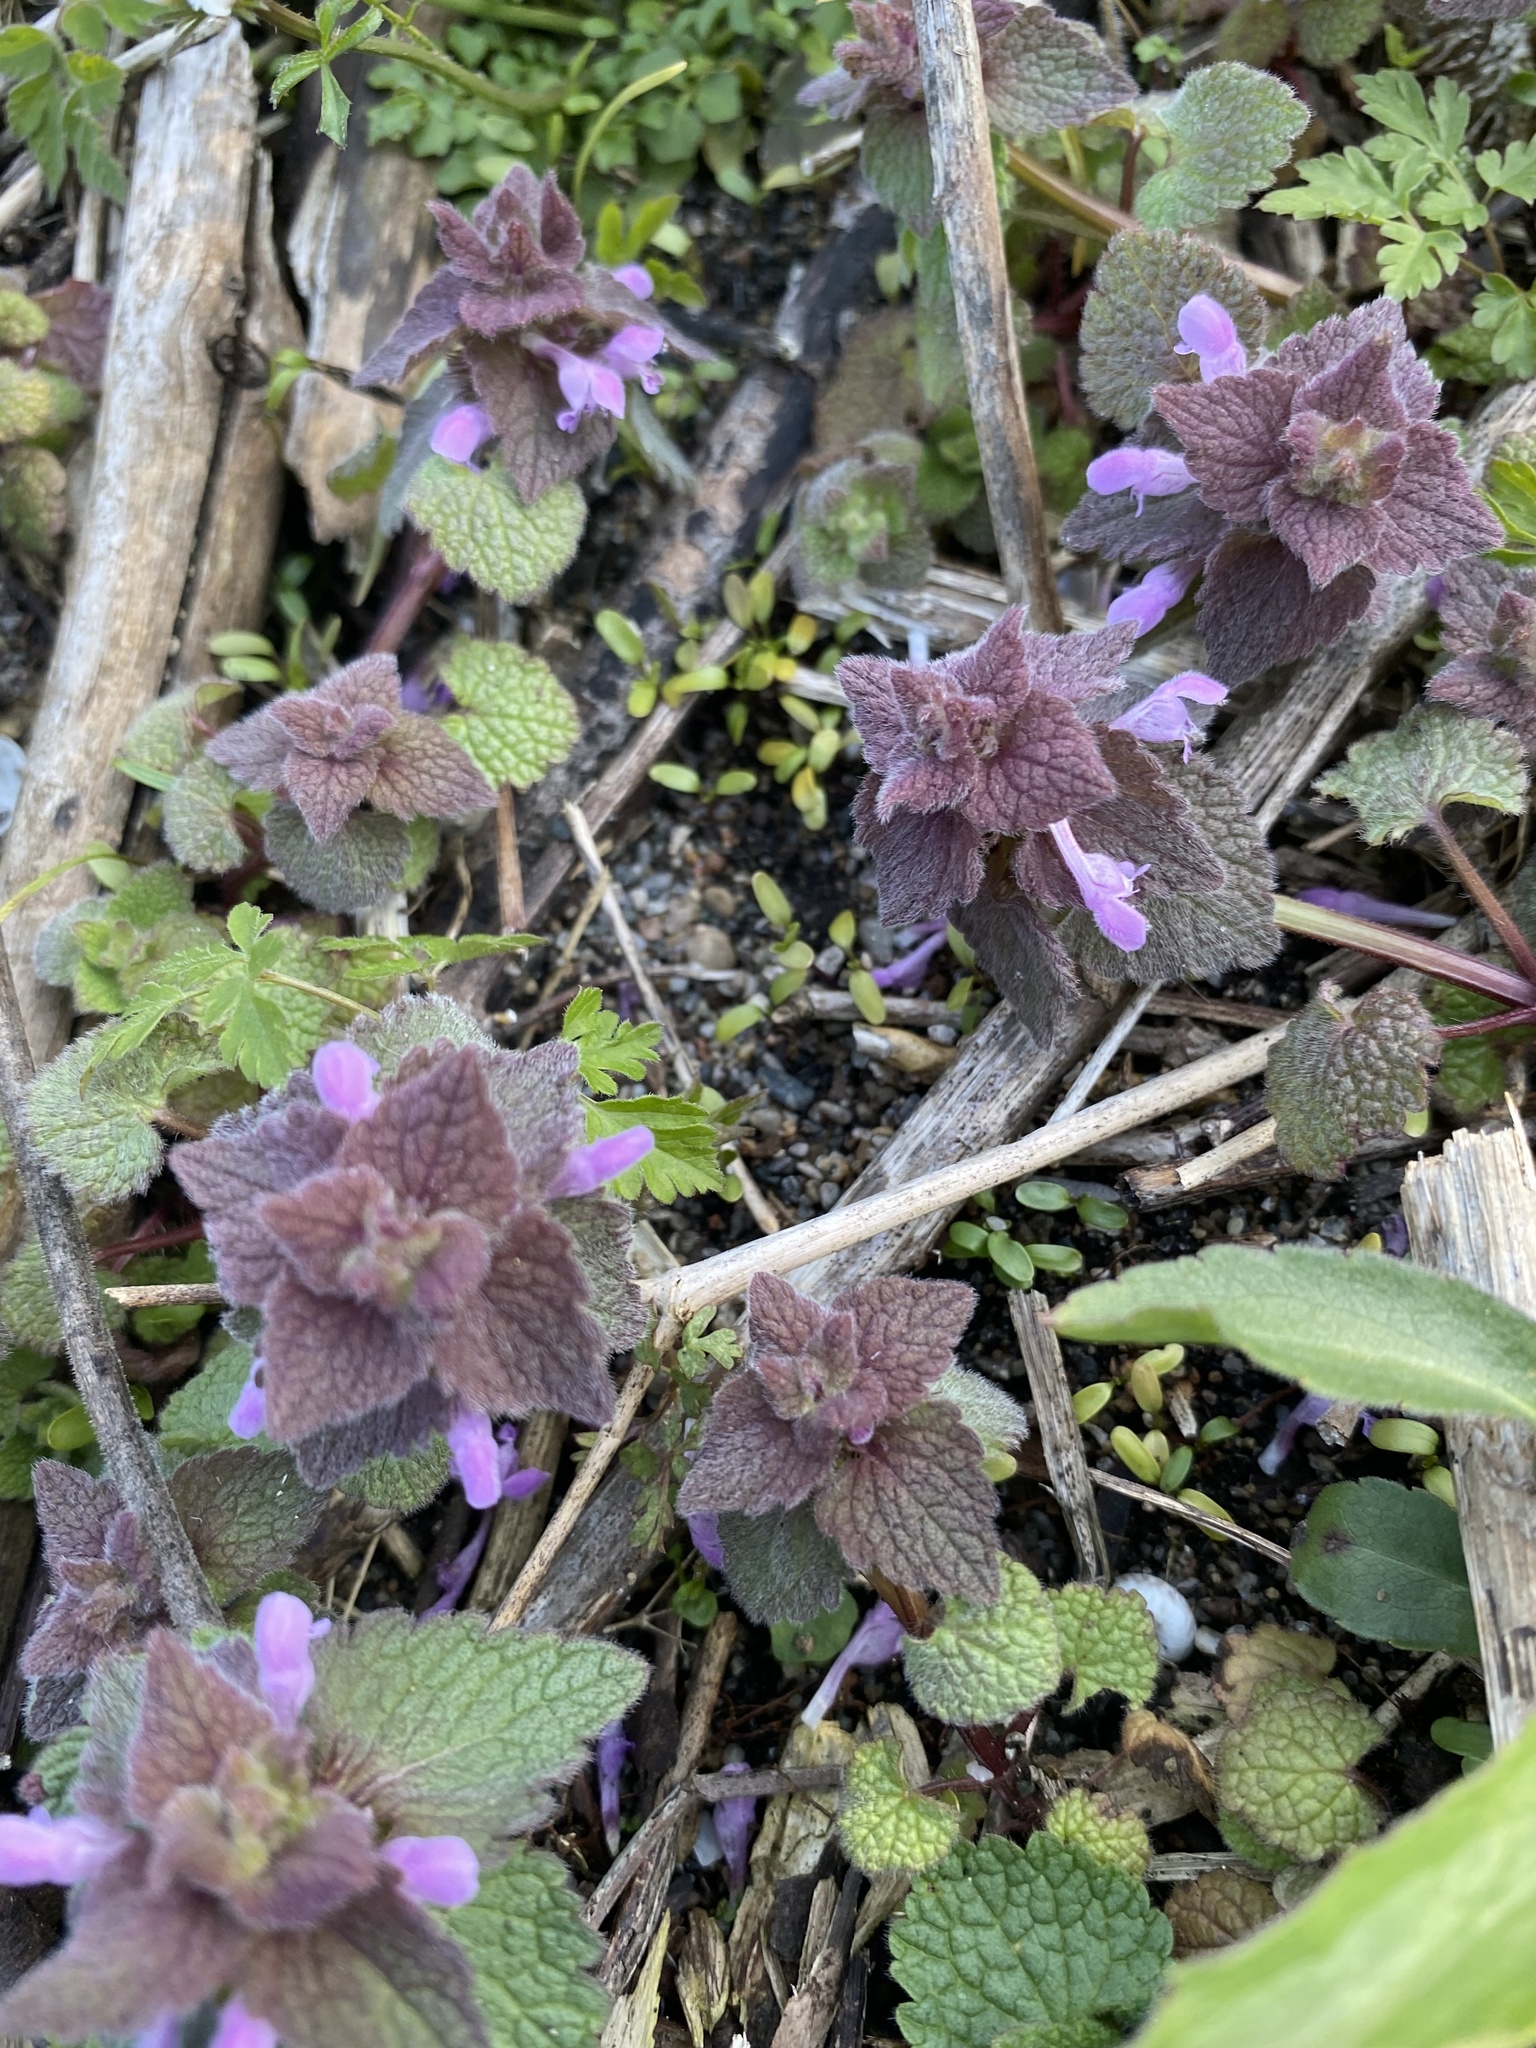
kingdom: Plantae
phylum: Tracheophyta
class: Magnoliopsida
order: Lamiales
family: Lamiaceae
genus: Lamium
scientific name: Lamium purpureum
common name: Red dead-nettle
